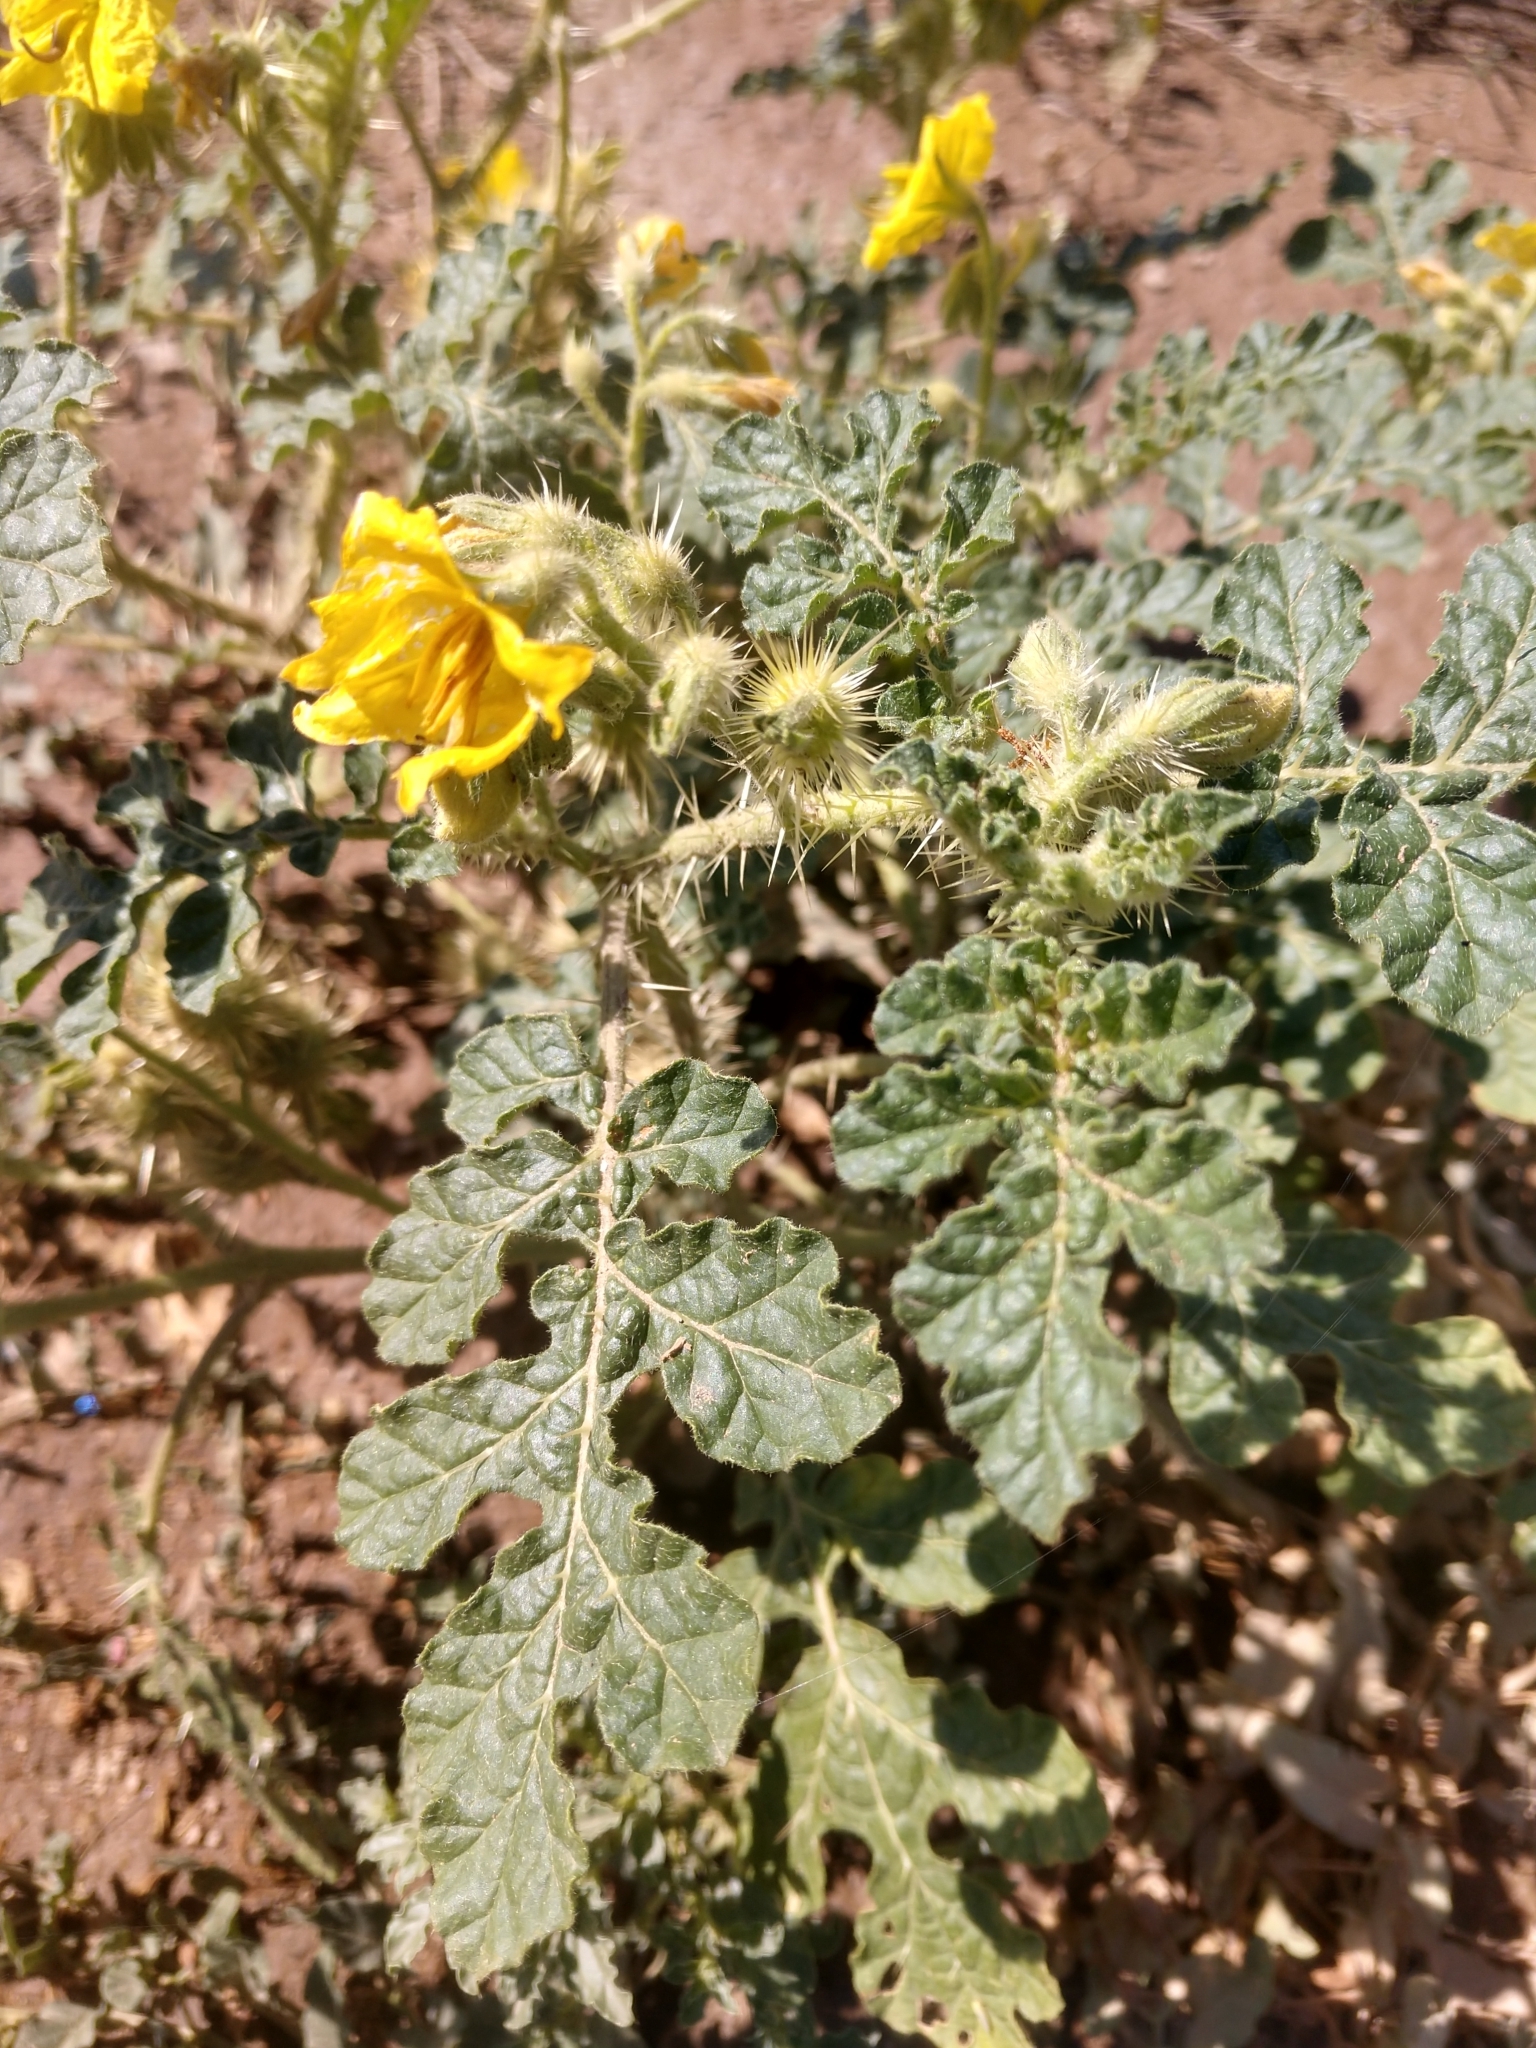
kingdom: Plantae
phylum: Tracheophyta
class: Magnoliopsida
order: Solanales
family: Solanaceae
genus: Solanum
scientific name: Solanum angustifolium
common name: Buffalobur nightshade
